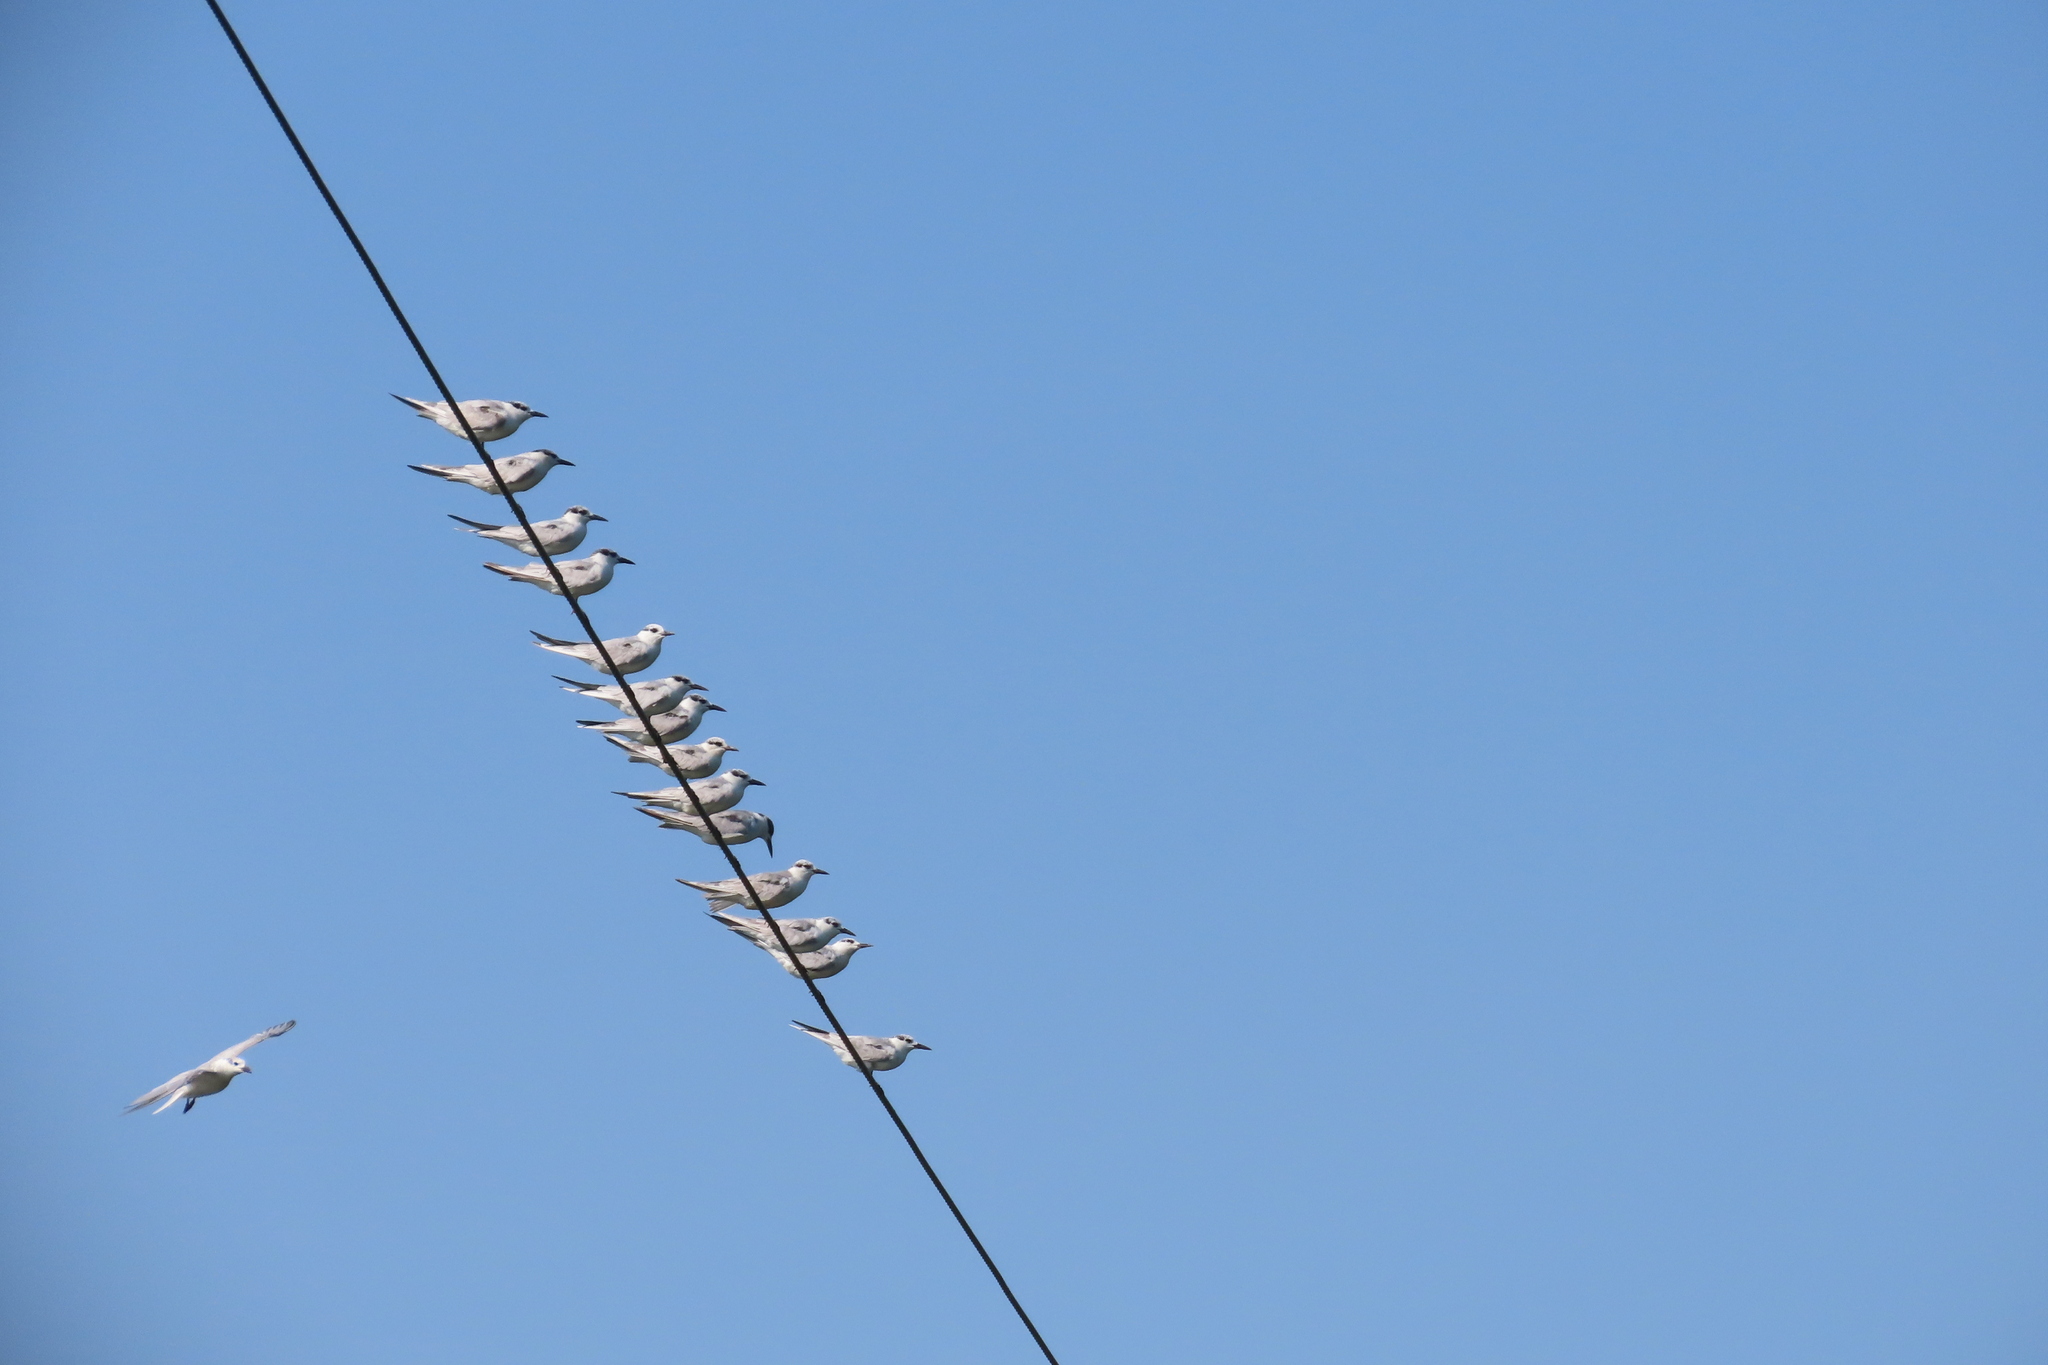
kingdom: Animalia
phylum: Chordata
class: Aves
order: Charadriiformes
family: Laridae
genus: Chlidonias
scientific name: Chlidonias hybrida
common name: Whiskered tern
